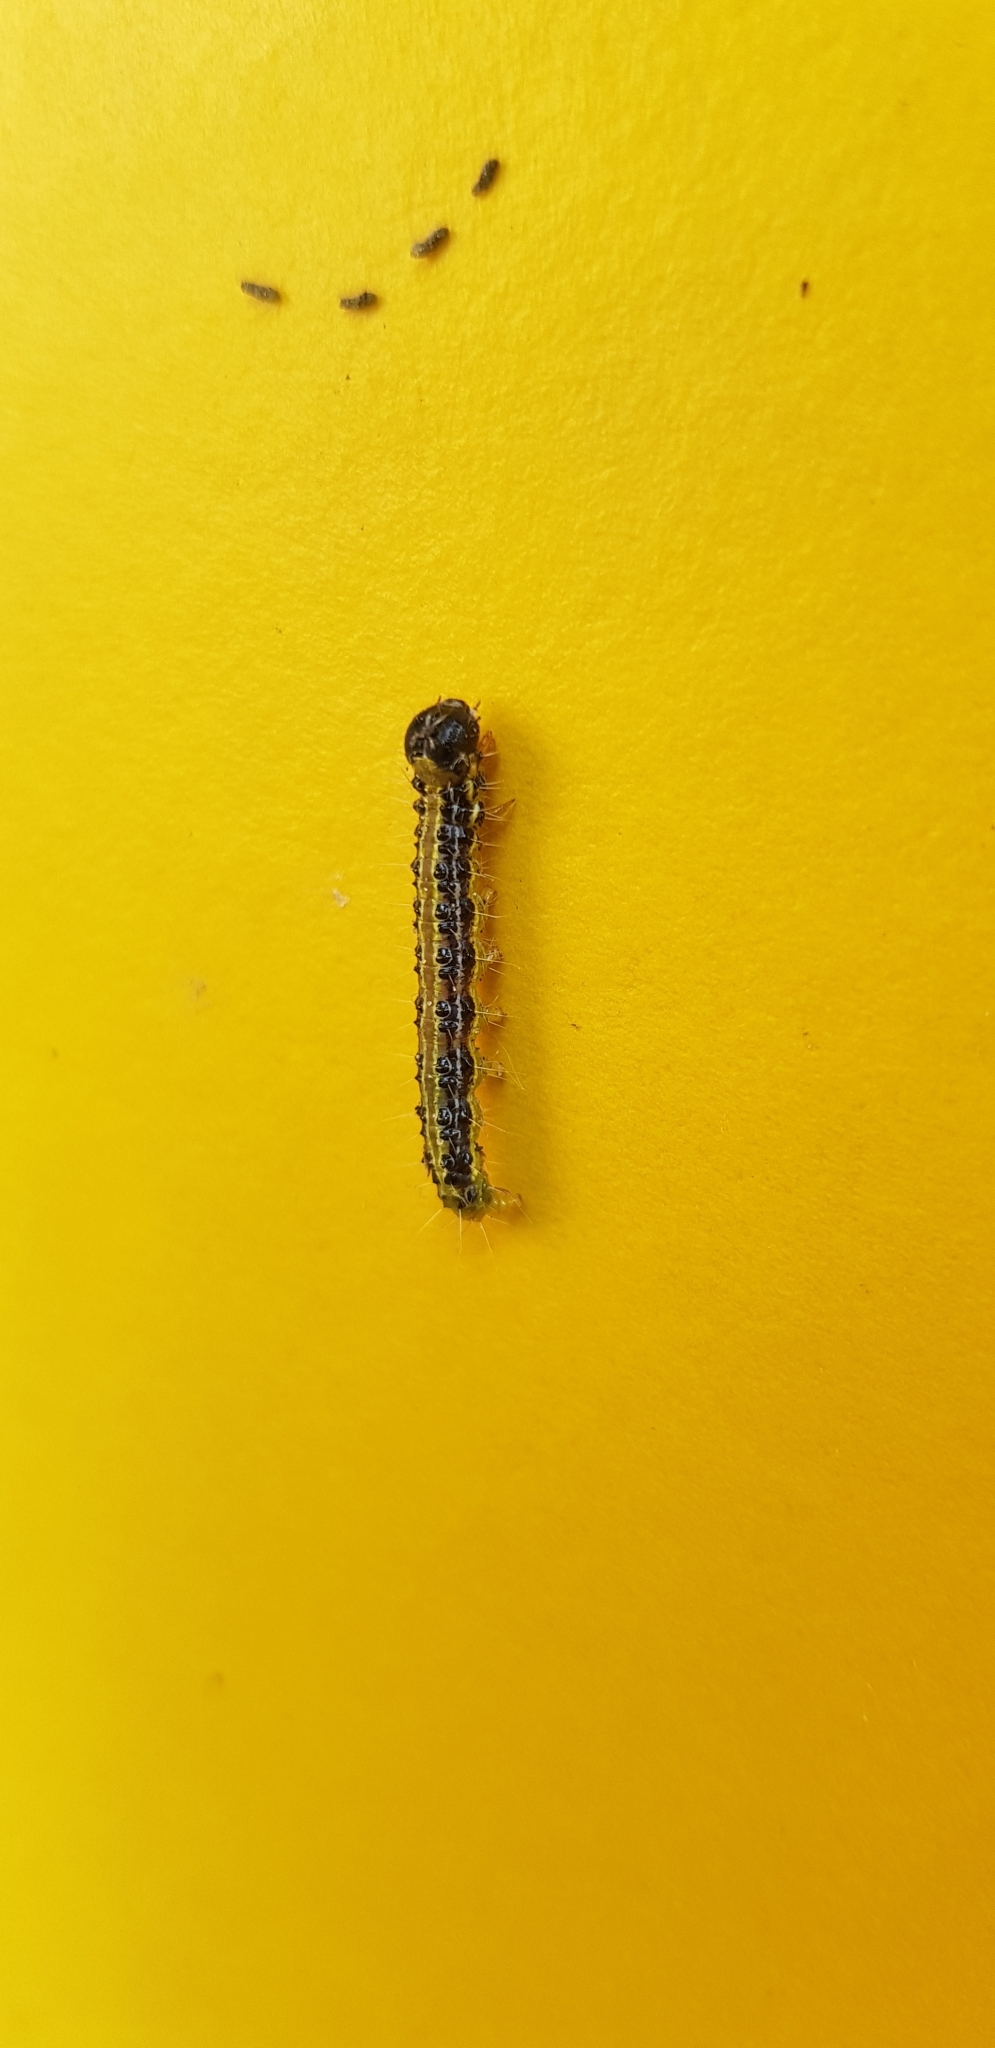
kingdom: Animalia
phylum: Arthropoda
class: Insecta
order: Lepidoptera
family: Crambidae
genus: Cydalima
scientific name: Cydalima perspectalis
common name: Box tree moth
